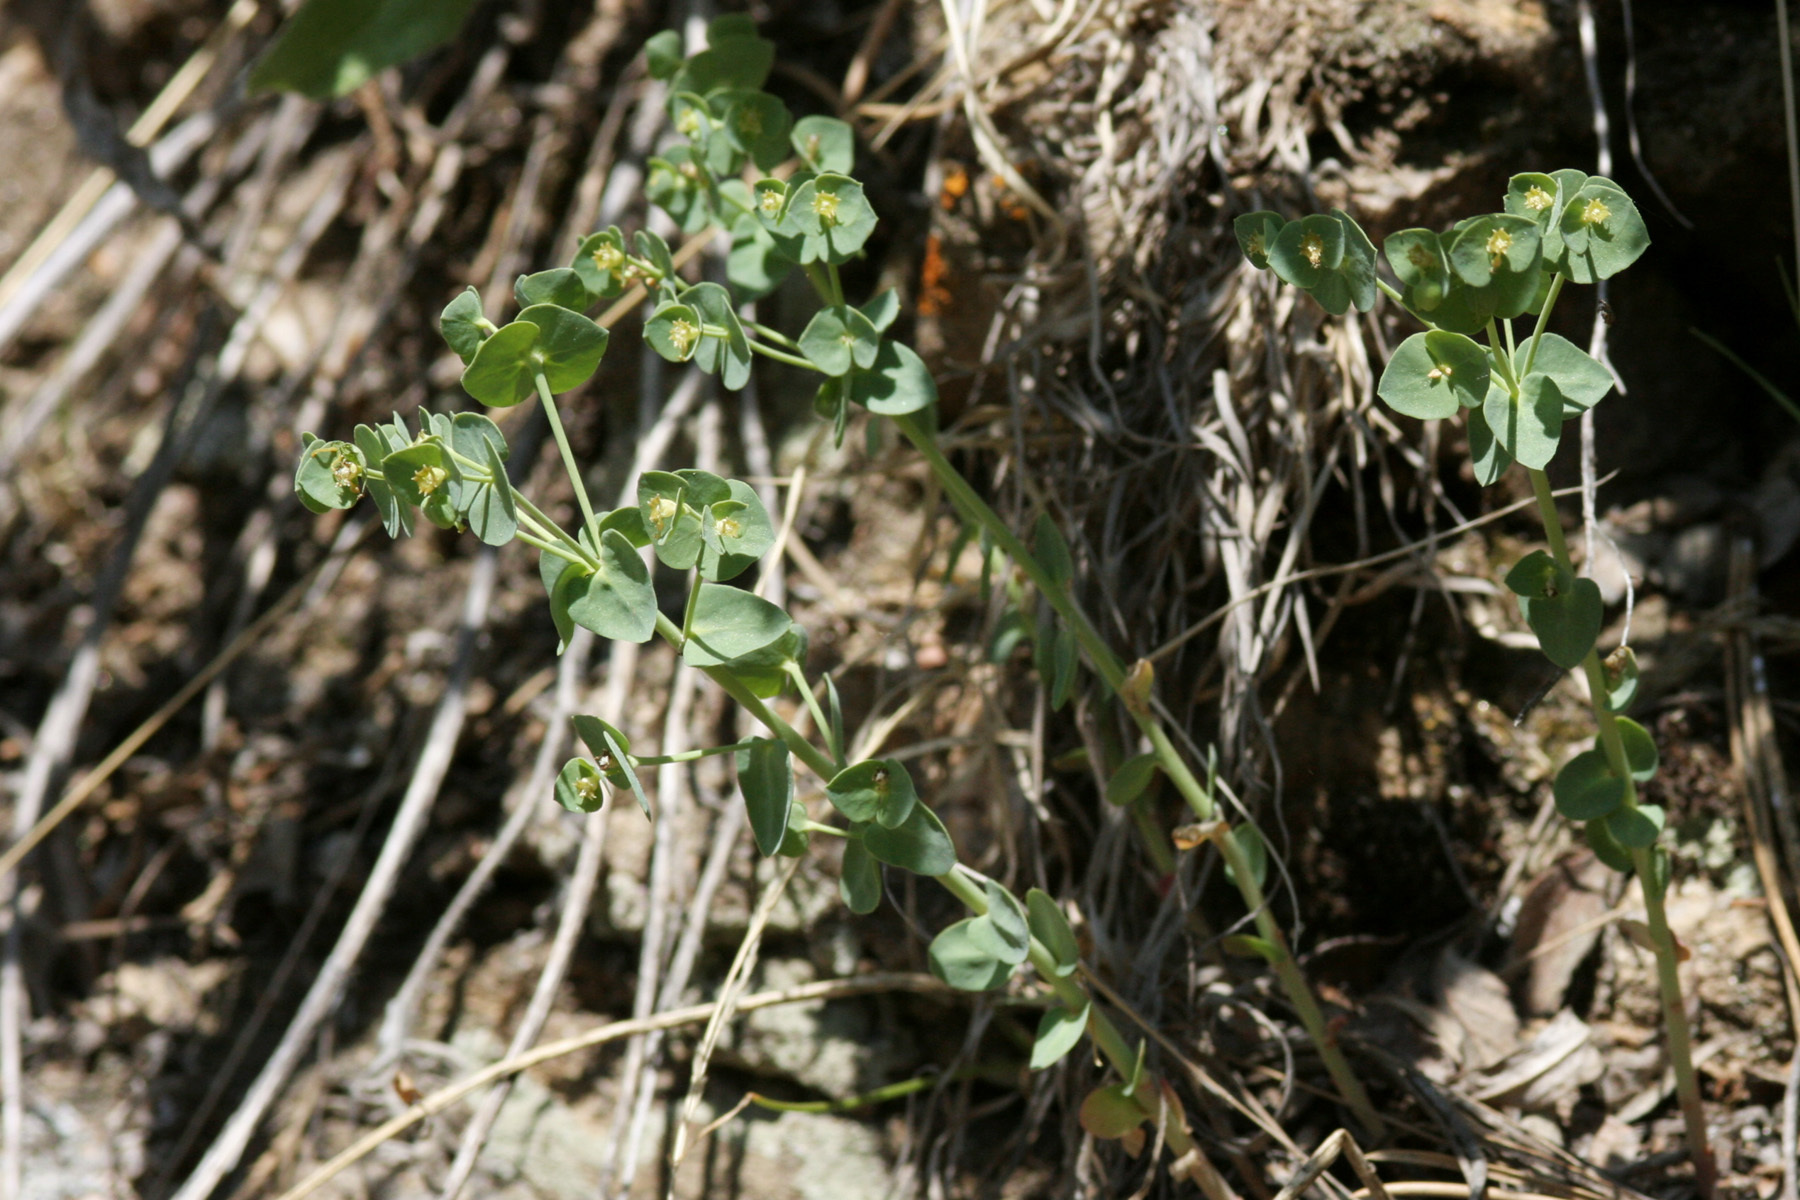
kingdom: Plantae
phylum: Tracheophyta
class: Magnoliopsida
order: Malpighiales
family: Euphorbiaceae
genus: Euphorbia
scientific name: Euphorbia brachycera
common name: Shorthorn spurge
